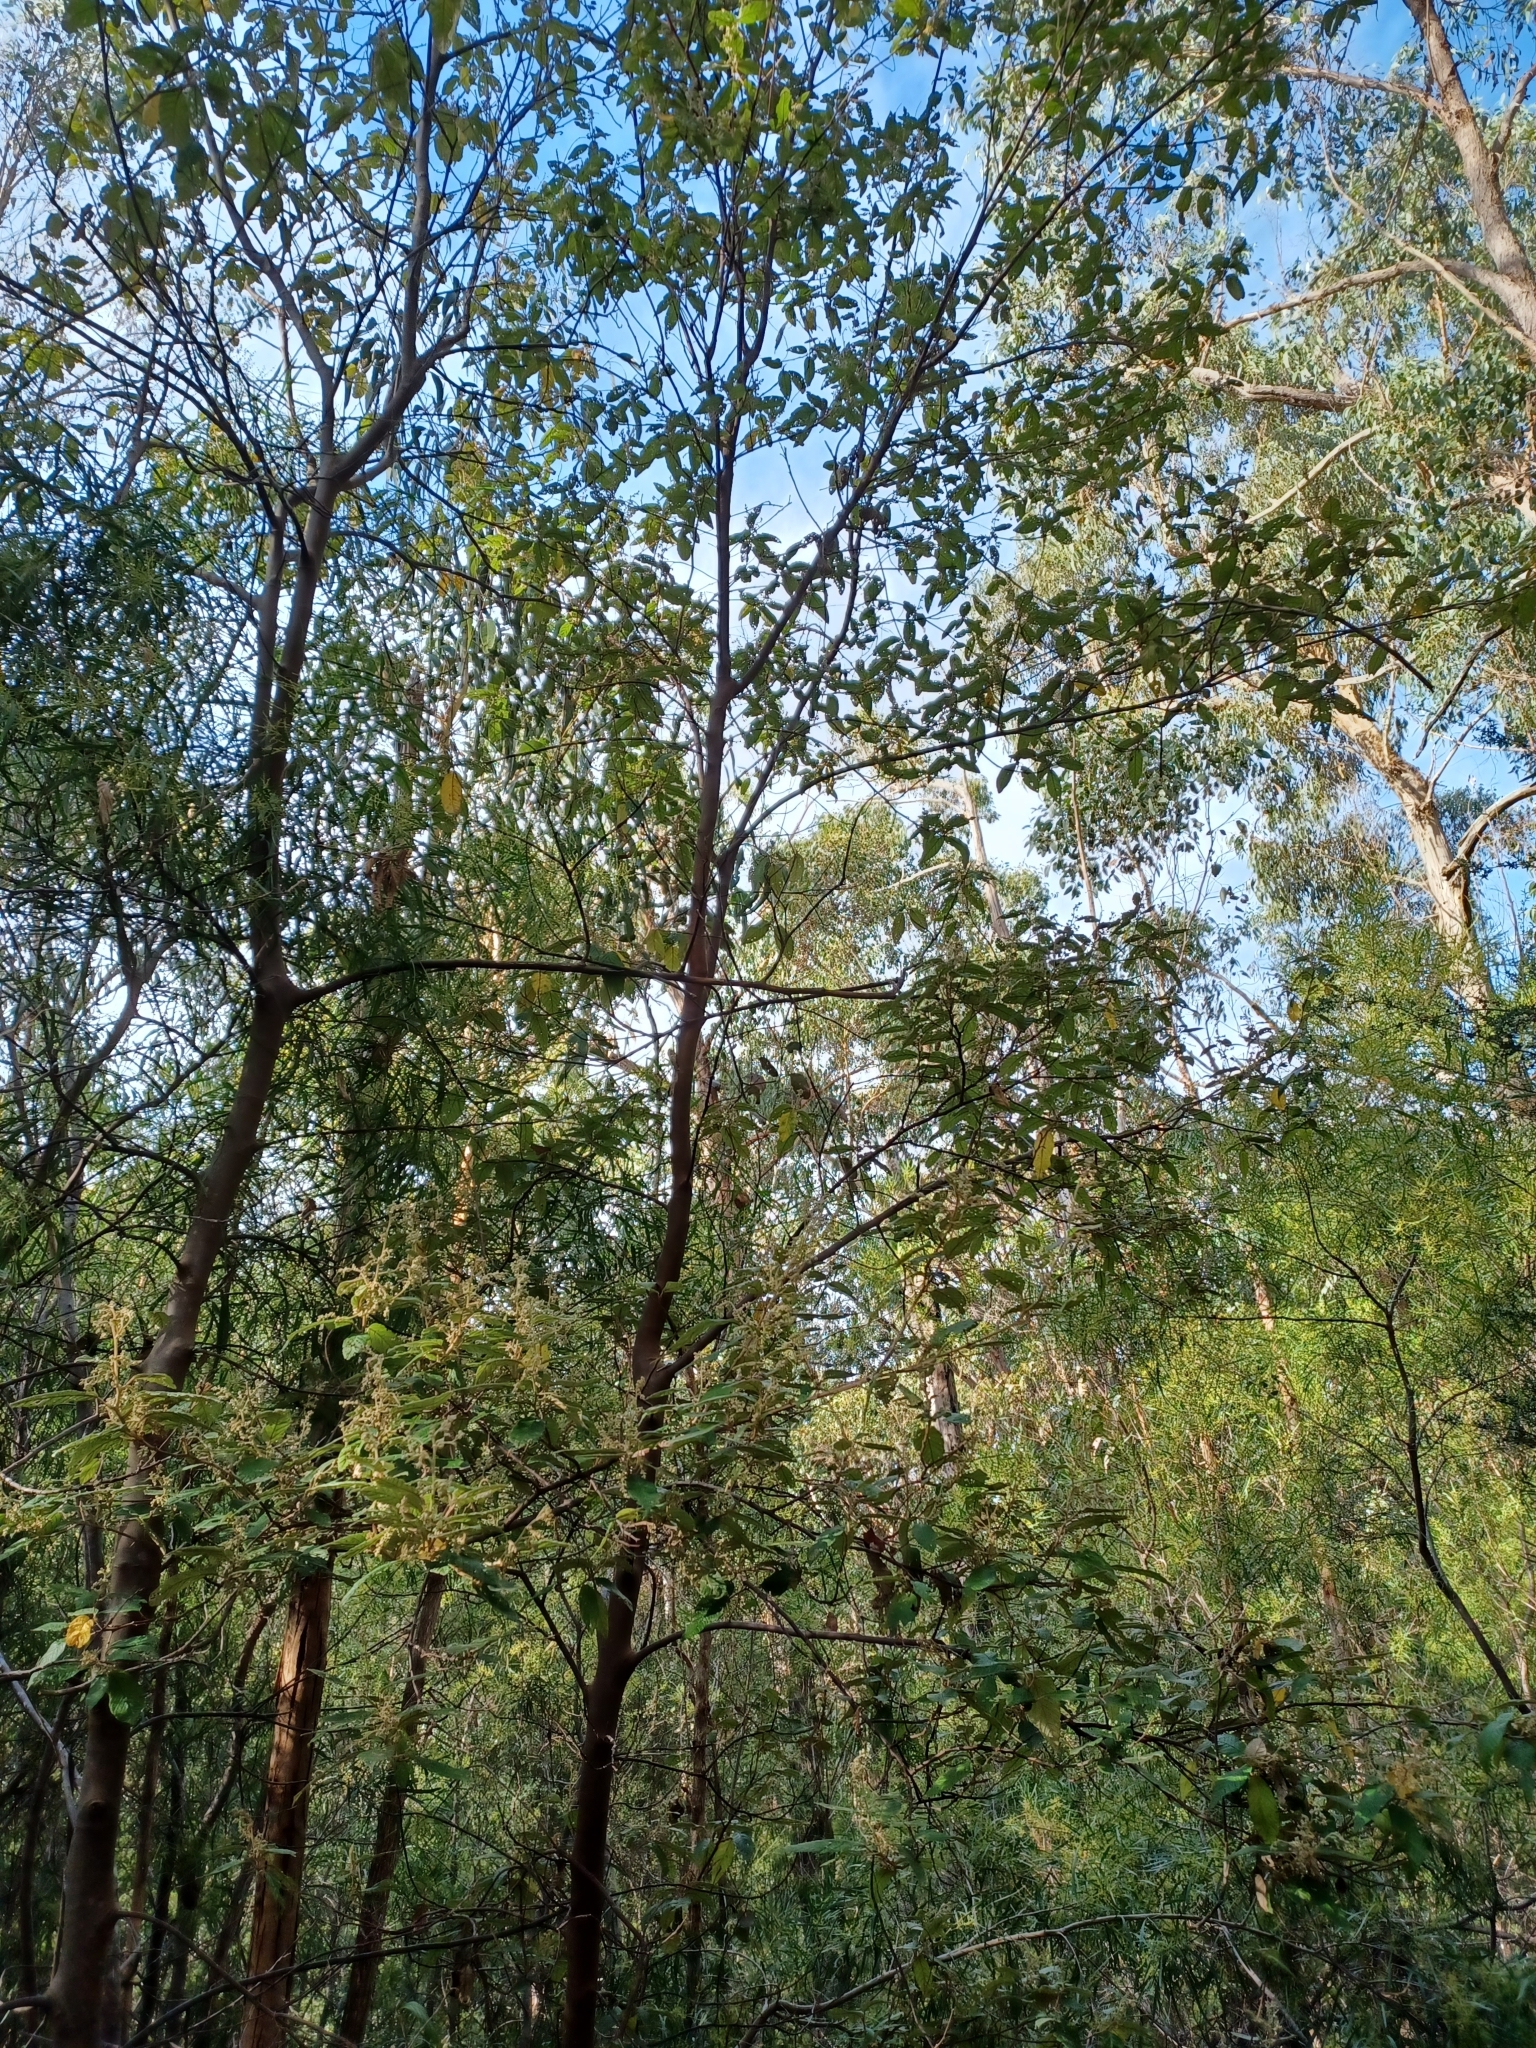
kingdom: Plantae
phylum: Tracheophyta
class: Magnoliopsida
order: Rosales
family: Rhamnaceae
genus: Pomaderris
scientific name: Pomaderris aspera
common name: Hazel pomaderris
